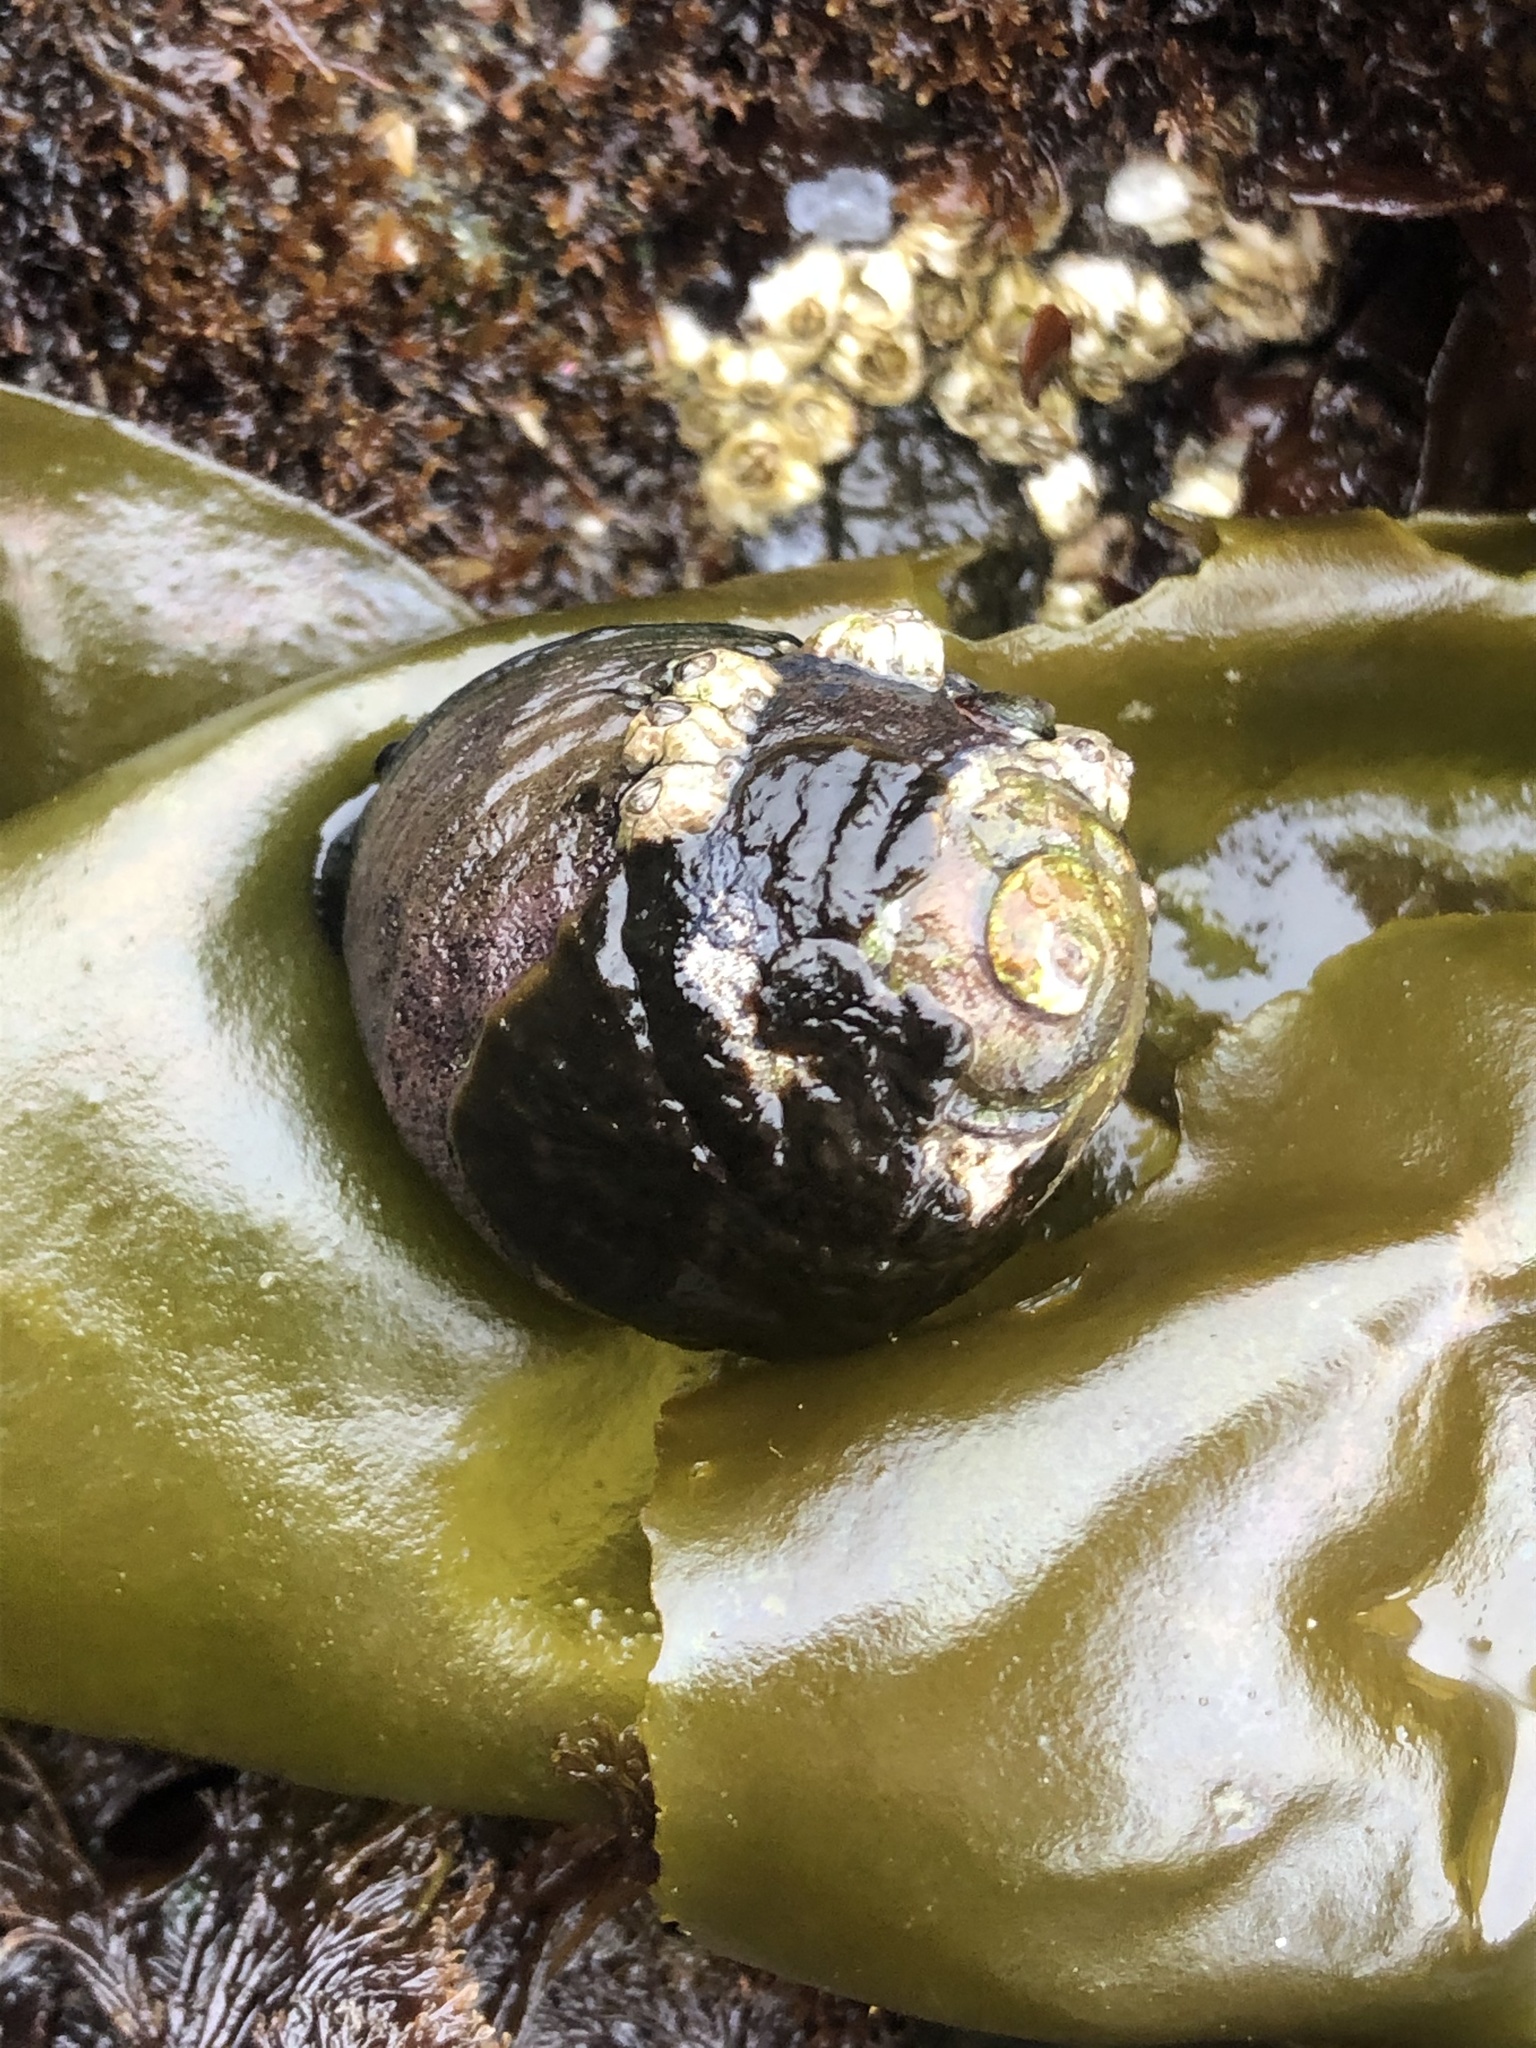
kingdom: Animalia
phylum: Mollusca
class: Gastropoda
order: Trochida
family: Tegulidae
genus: Tegula
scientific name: Tegula funebralis
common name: Black tegula
